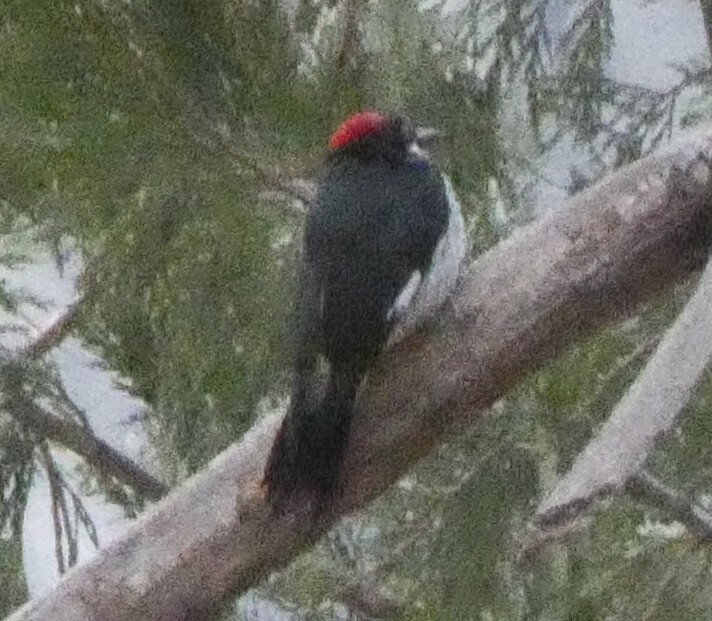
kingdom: Animalia
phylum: Chordata
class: Aves
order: Piciformes
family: Picidae
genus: Melanerpes
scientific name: Melanerpes formicivorus
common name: Acorn woodpecker
